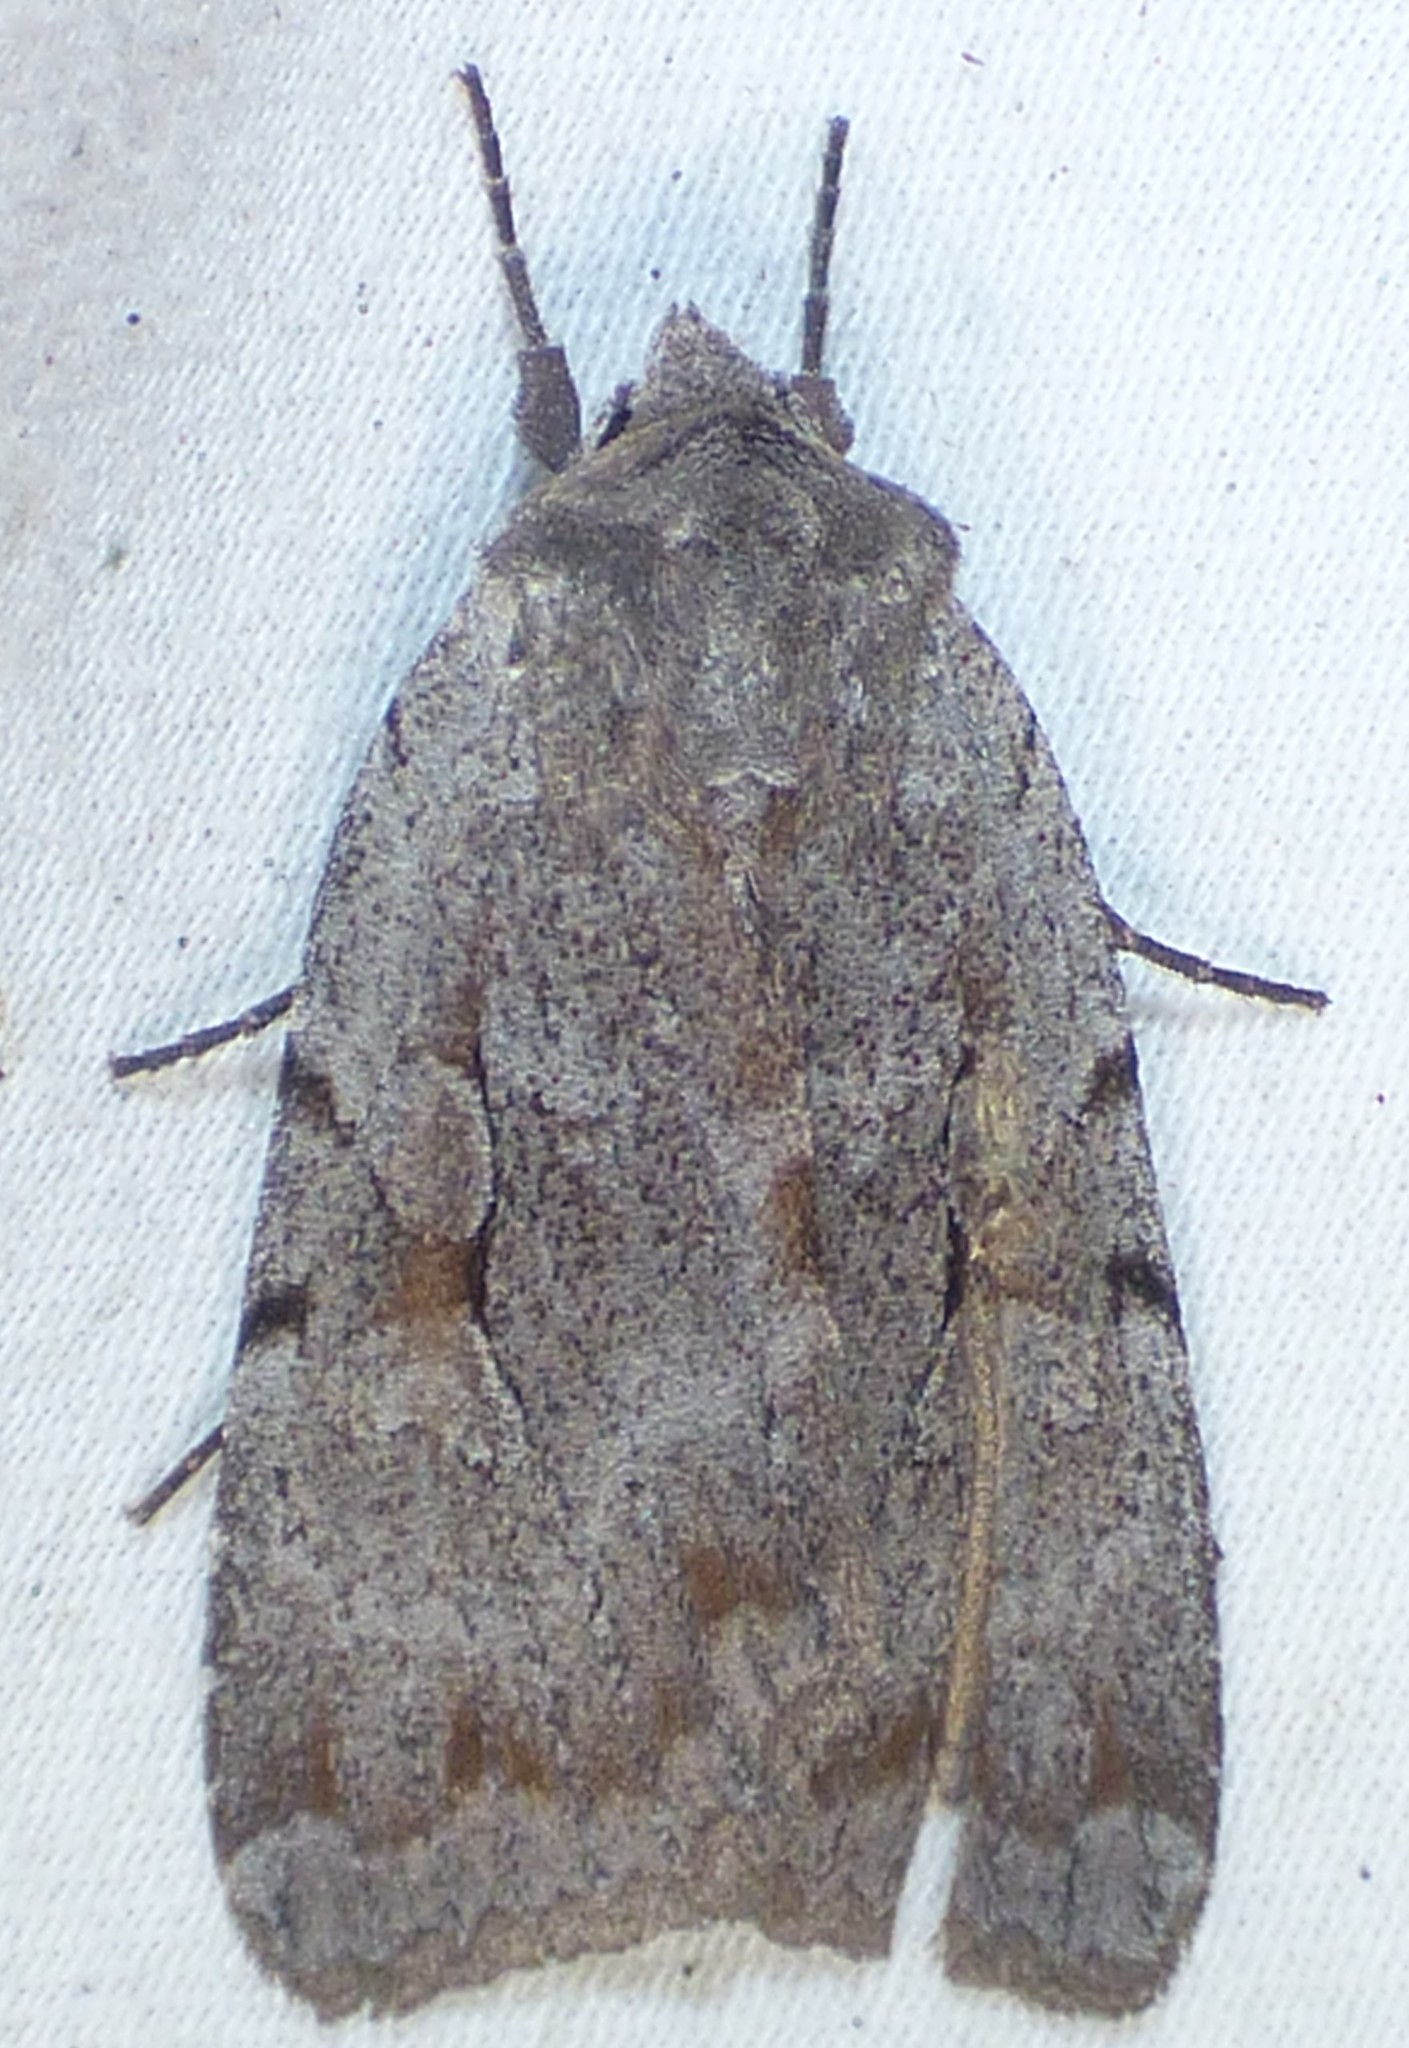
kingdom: Animalia
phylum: Arthropoda
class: Insecta
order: Lepidoptera
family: Noctuidae
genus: Xestia
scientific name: Xestia elimata
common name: Chameleon caterpillar
